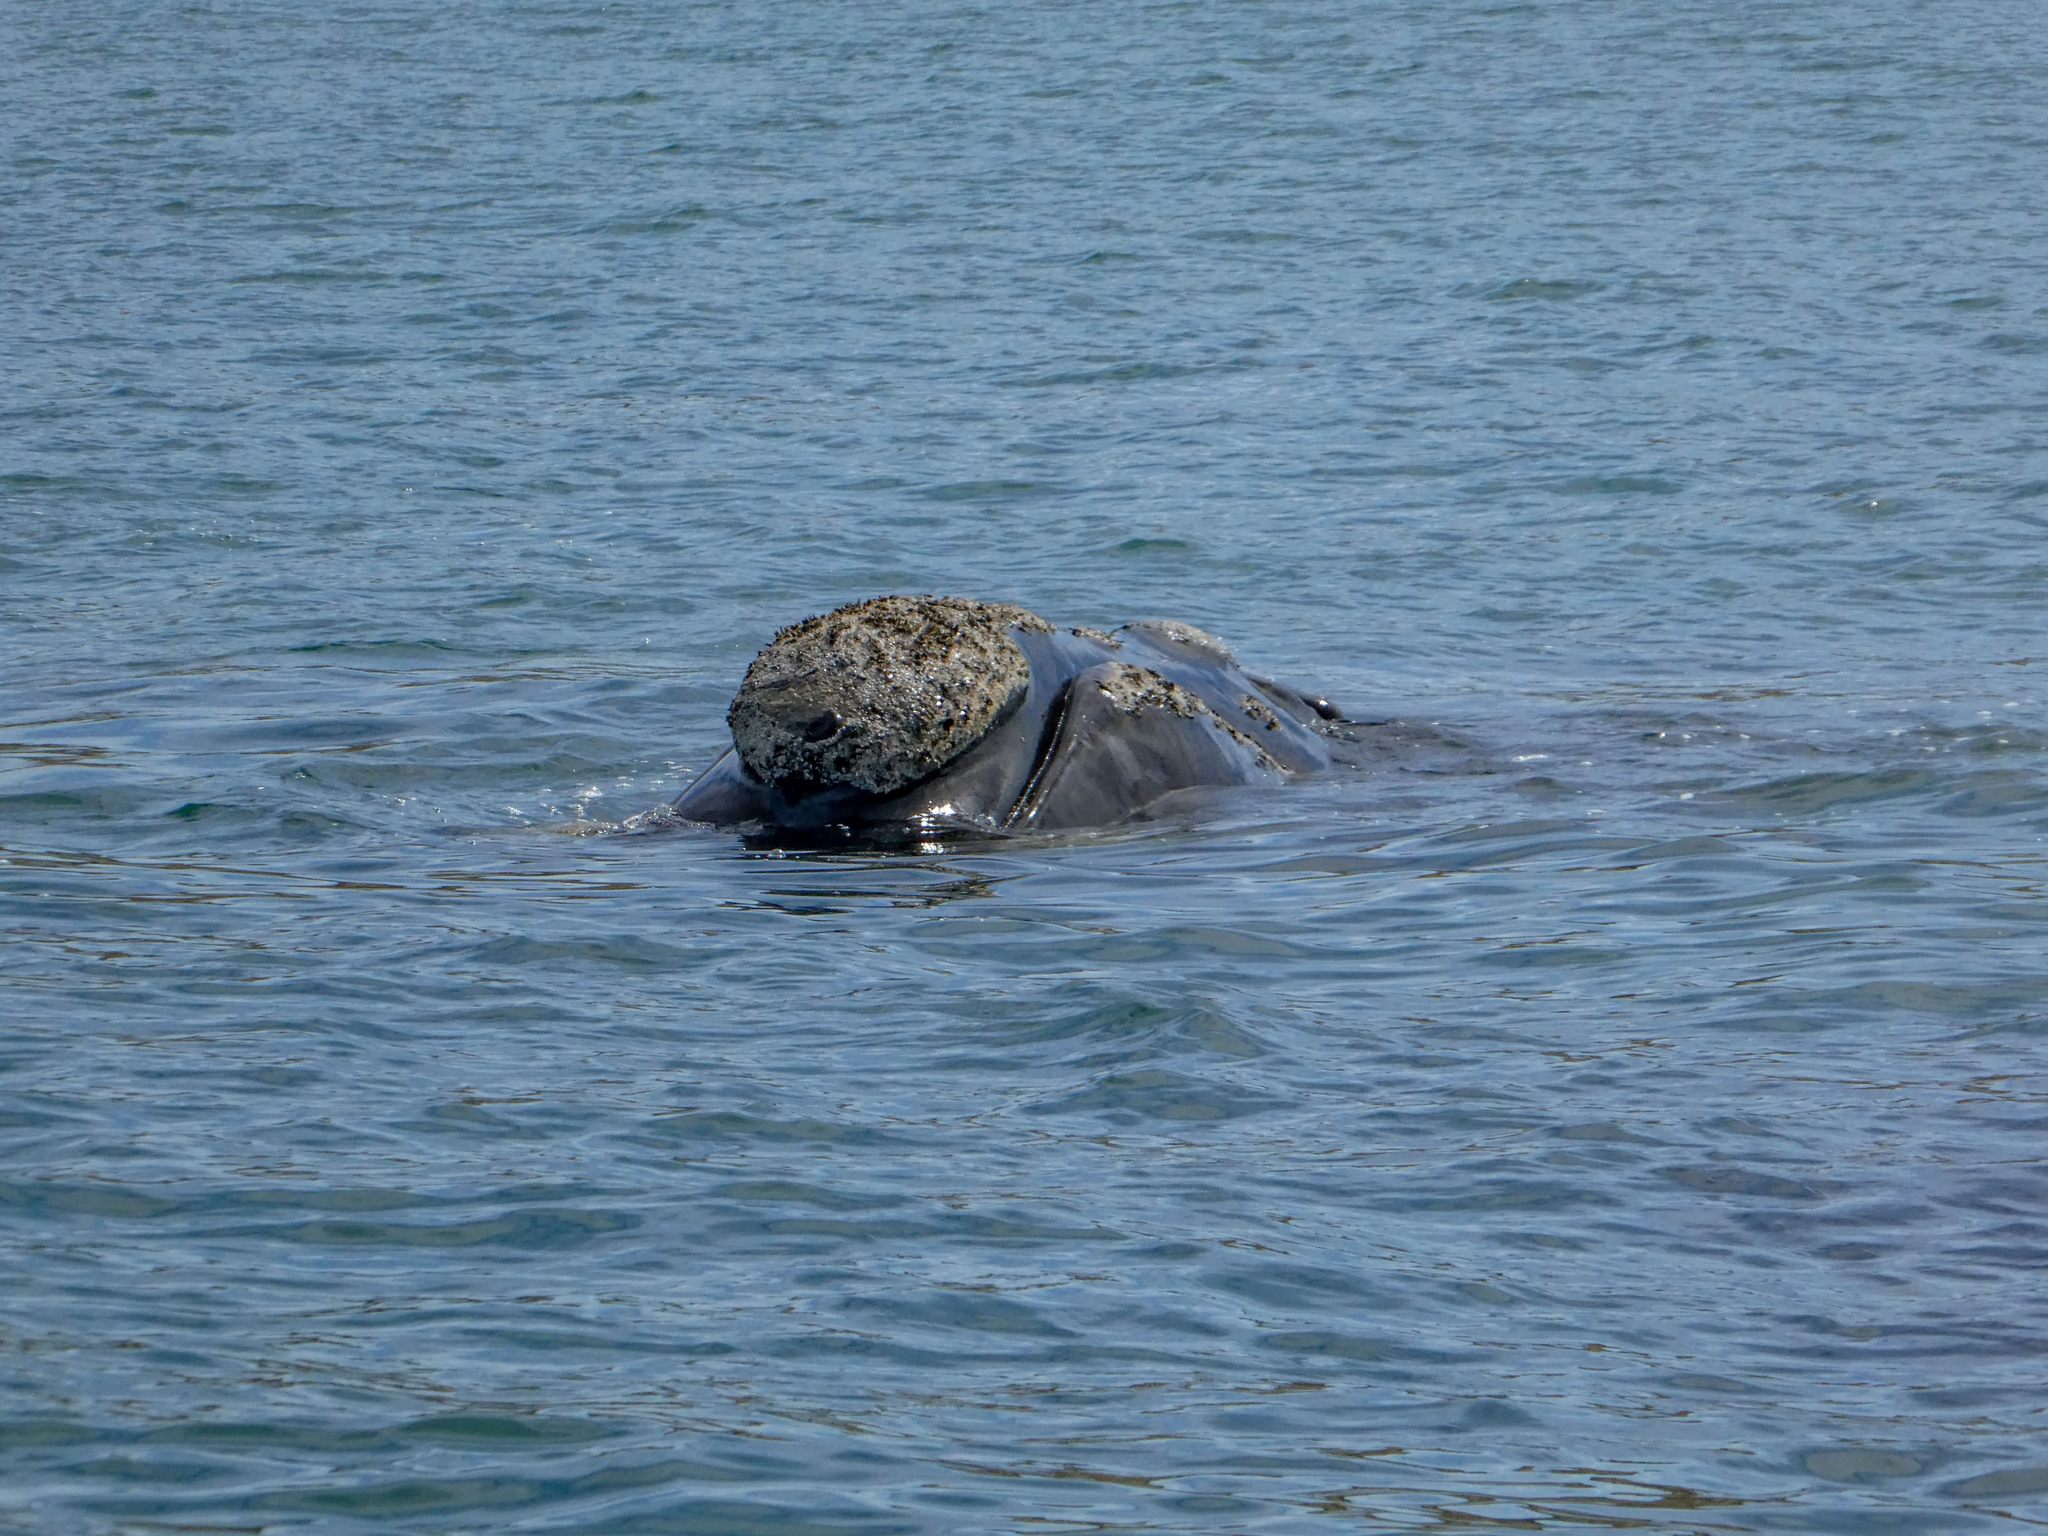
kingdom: Animalia
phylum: Chordata
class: Mammalia
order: Cetacea
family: Balaenidae
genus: Eubalaena
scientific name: Eubalaena australis
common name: Southern right whale
